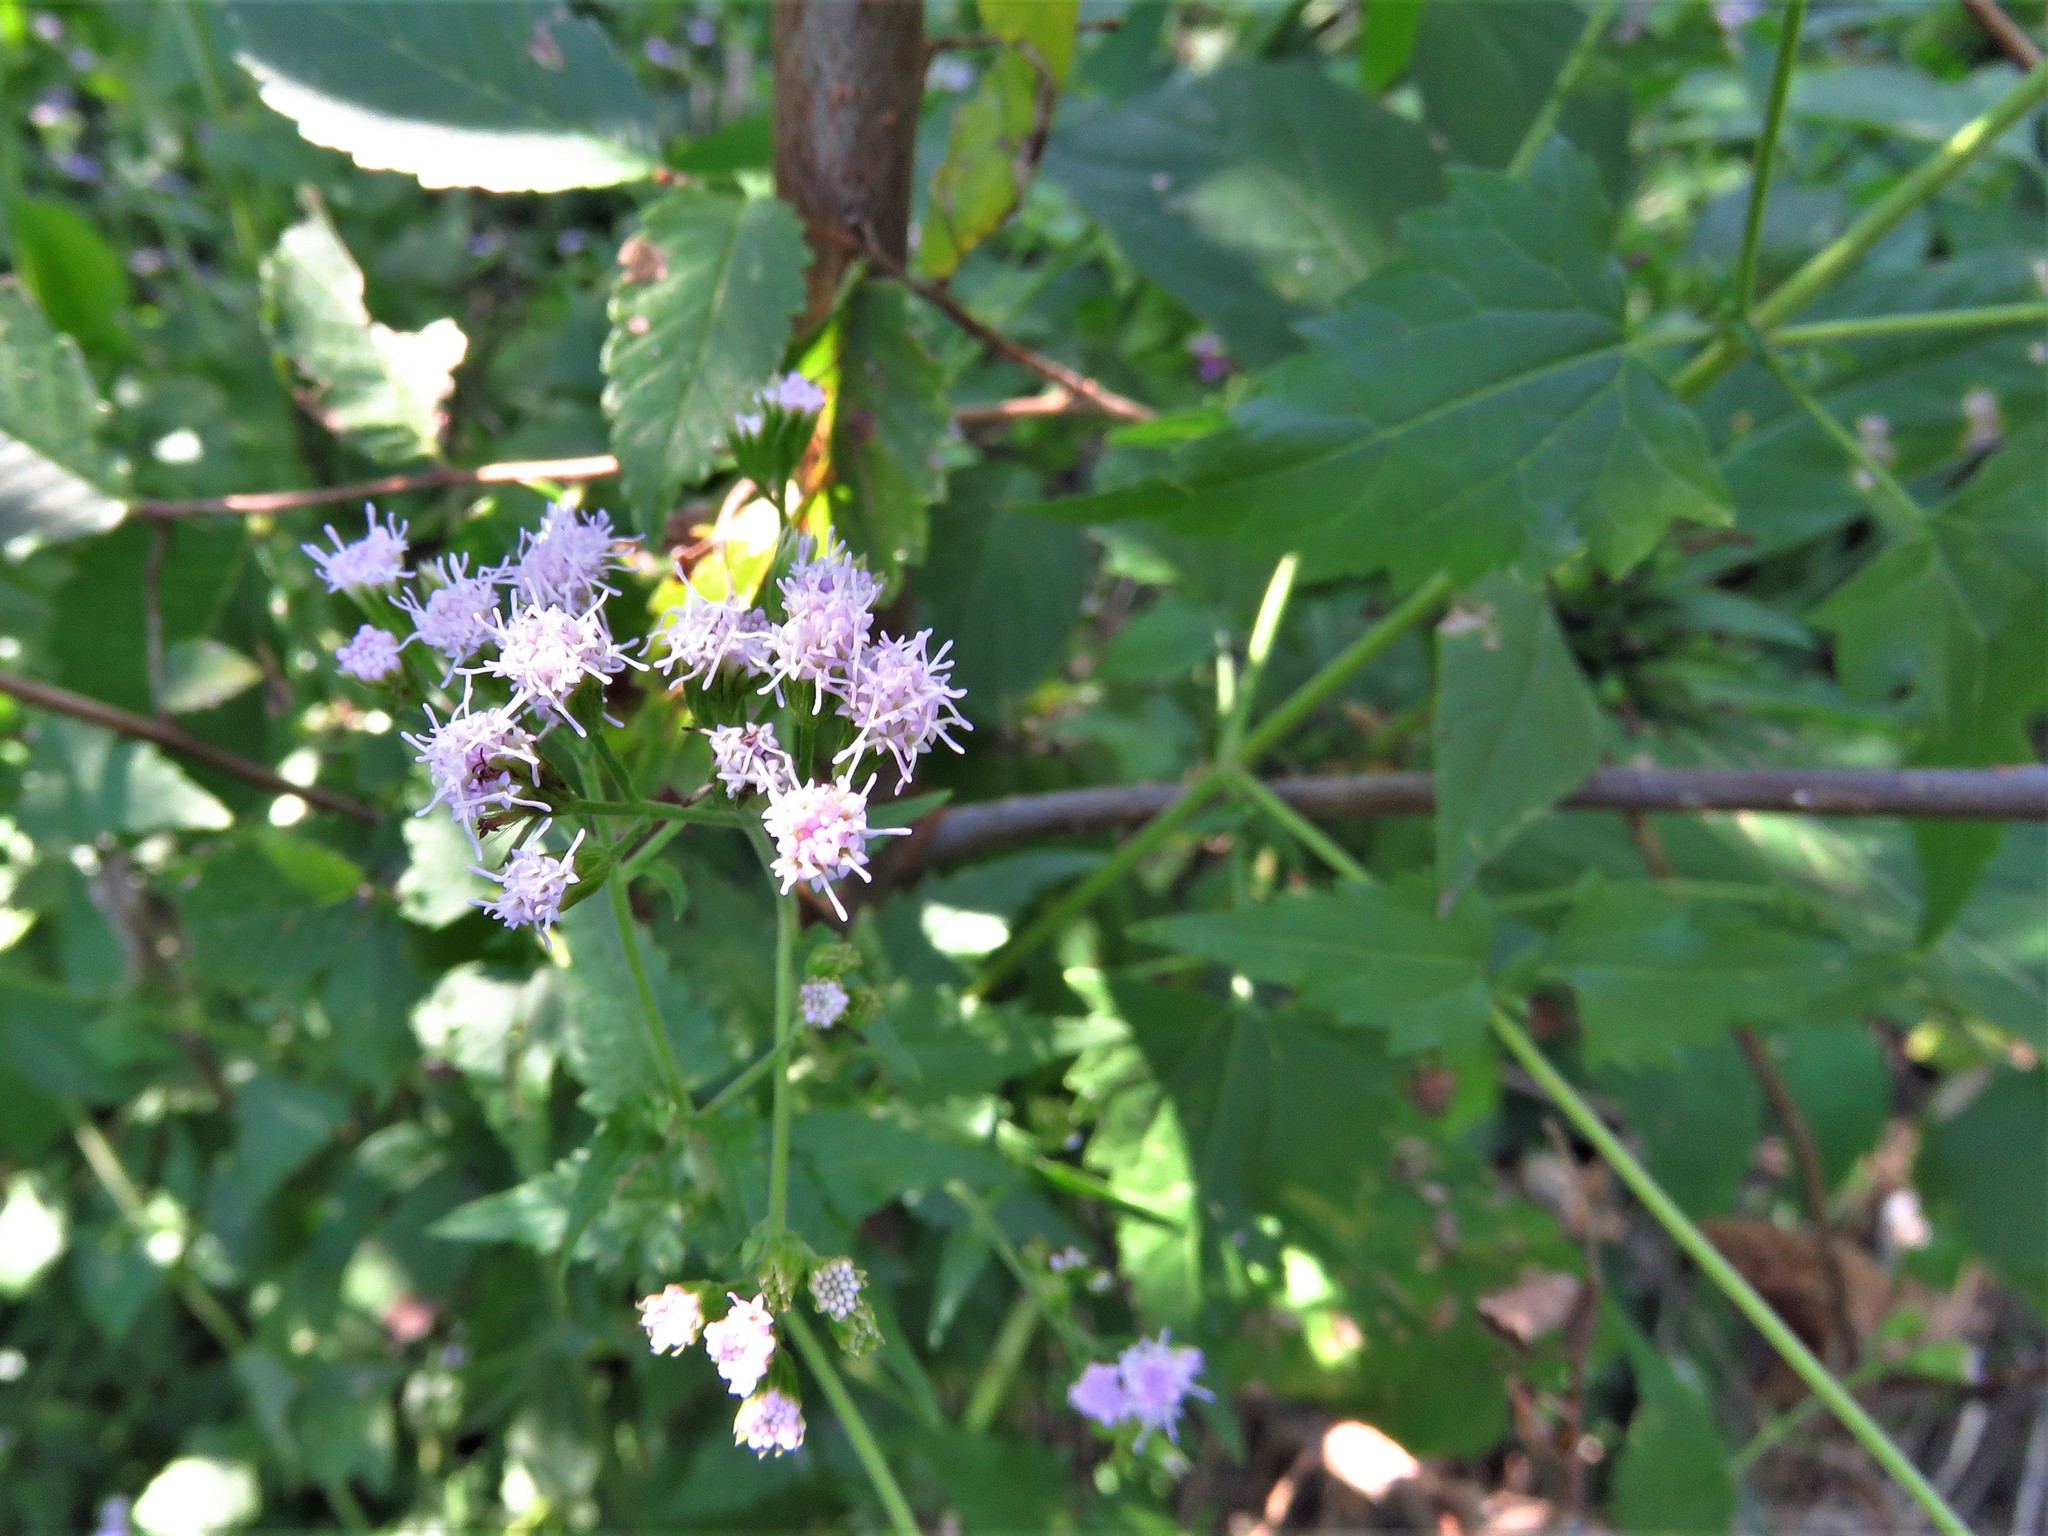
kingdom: Plantae
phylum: Tracheophyta
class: Magnoliopsida
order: Asterales
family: Asteraceae
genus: Fleischmannia
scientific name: Fleischmannia incarnata
